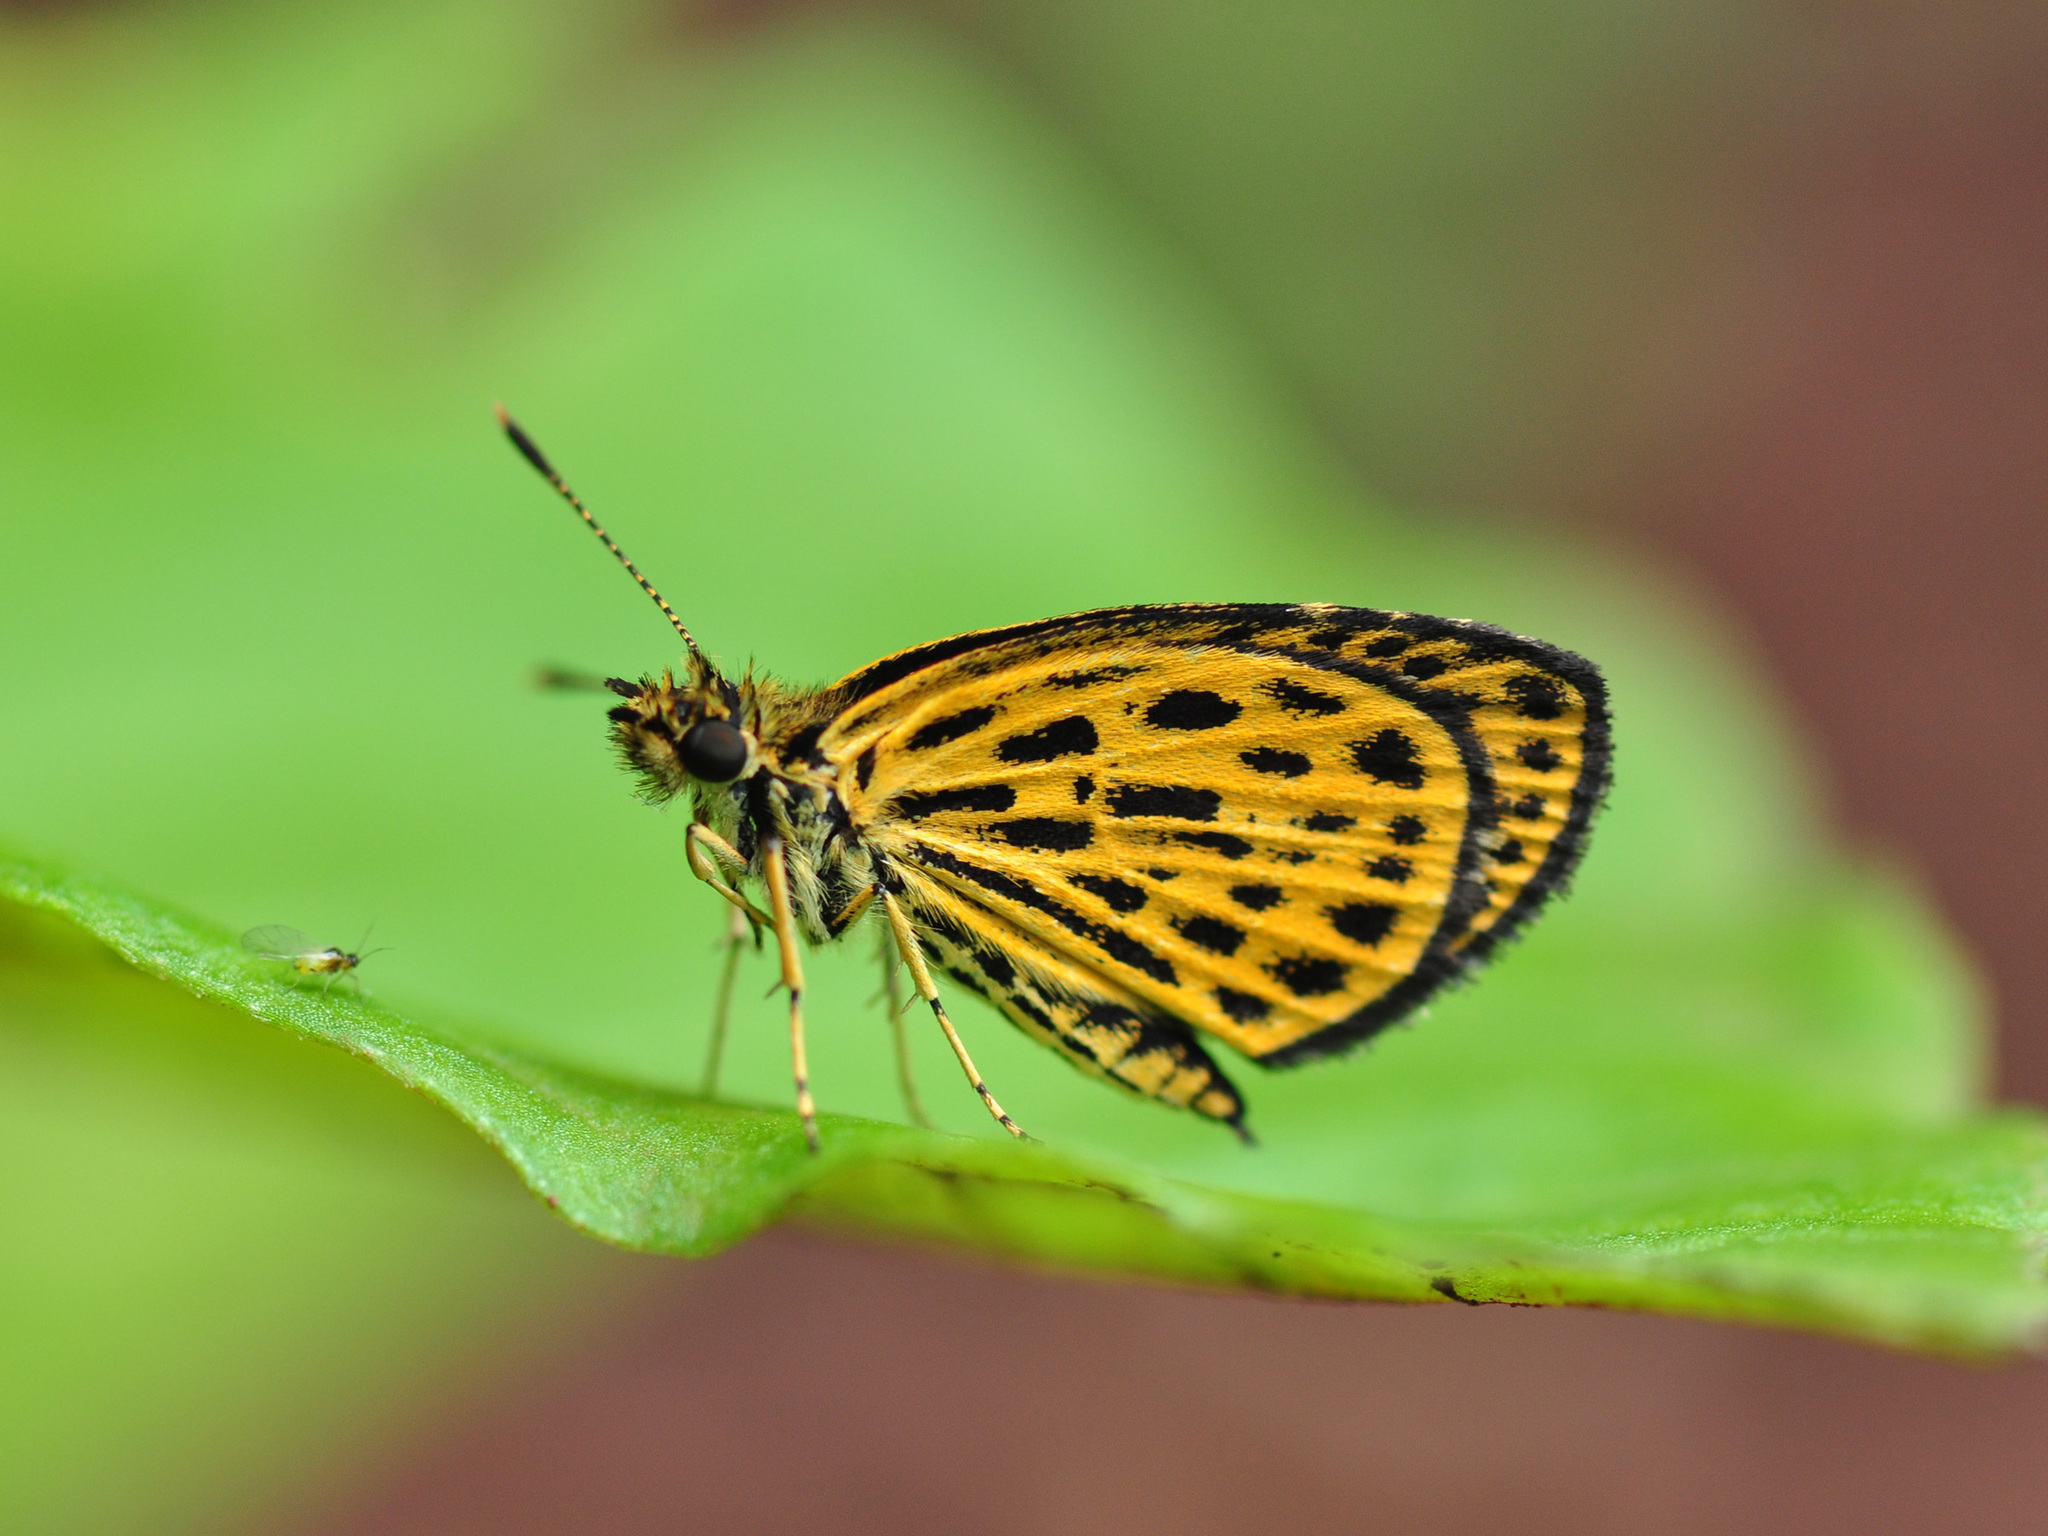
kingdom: Animalia
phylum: Arthropoda
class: Insecta
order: Lepidoptera
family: Hesperiidae
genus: Ampittia
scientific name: Ampittia subvittatus
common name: Tiger hopper
